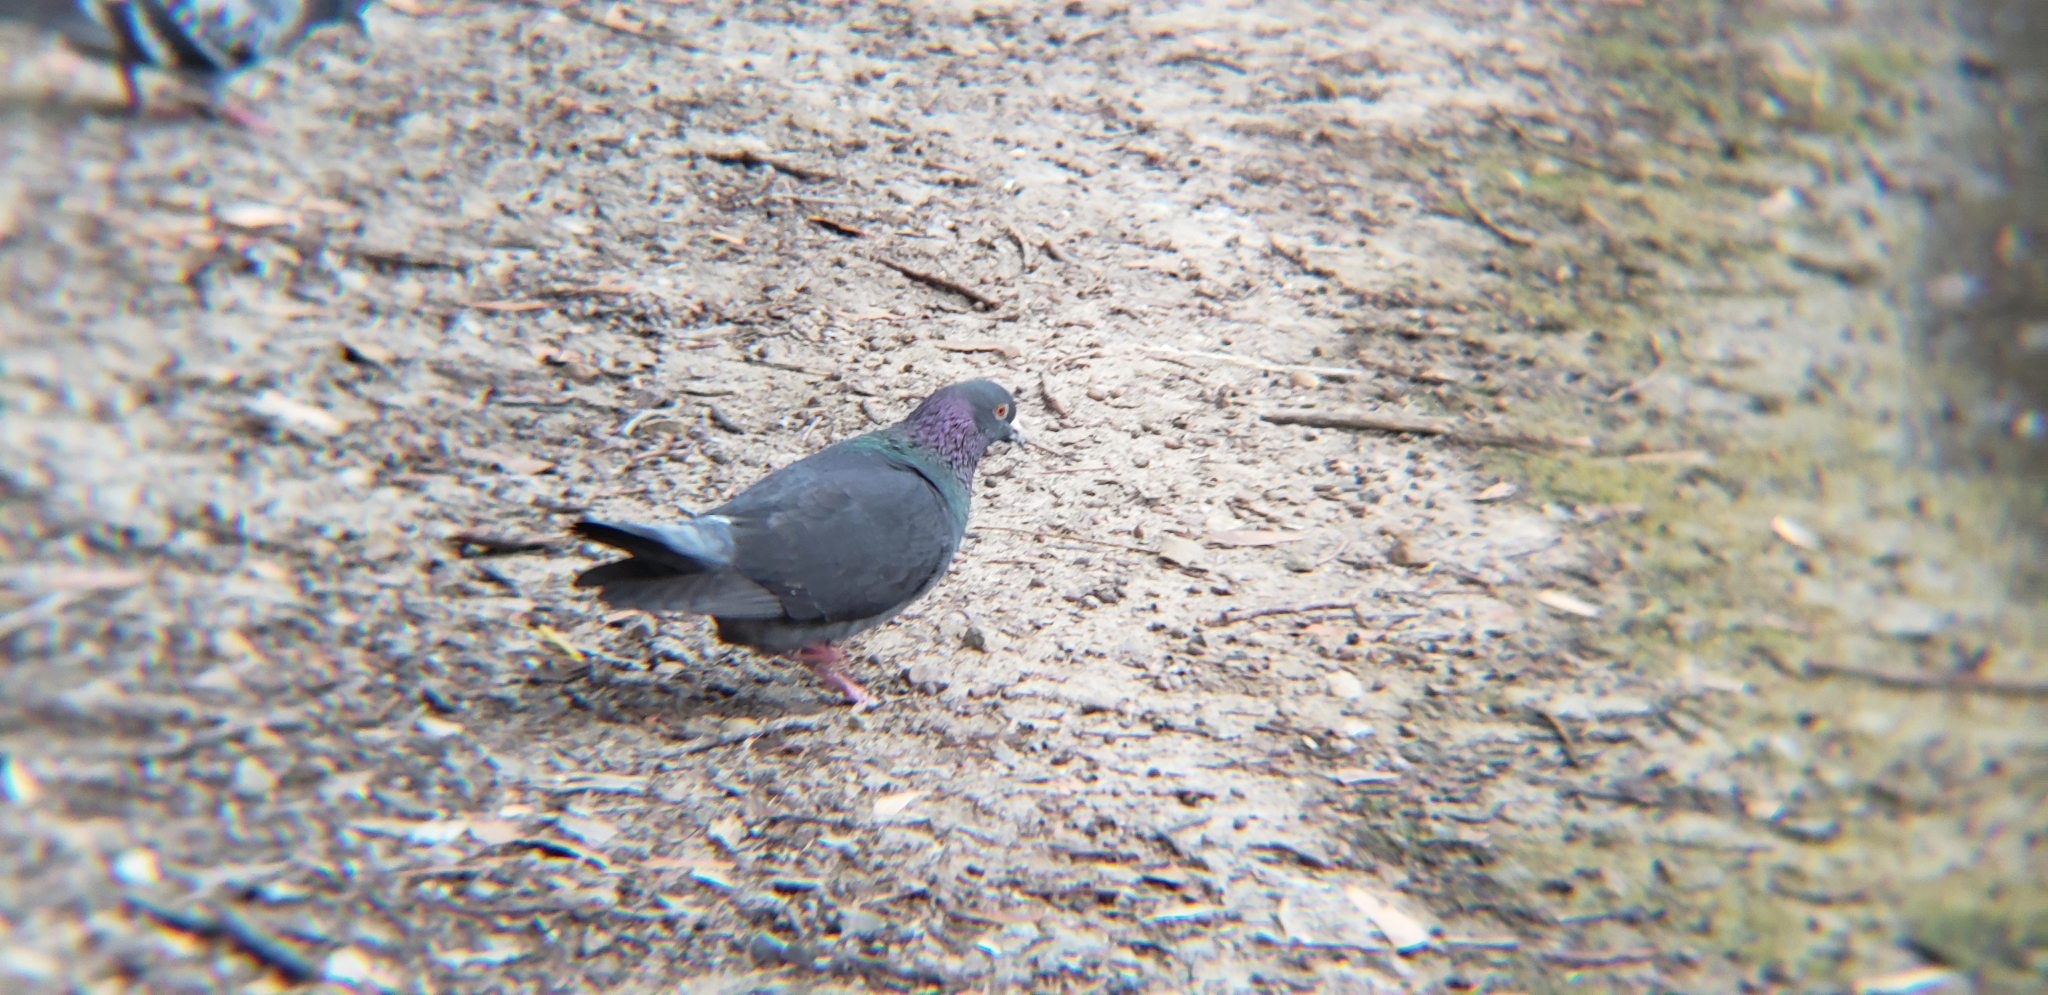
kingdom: Animalia
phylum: Chordata
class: Aves
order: Columbiformes
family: Columbidae
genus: Columba
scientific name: Columba livia
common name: Rock pigeon
